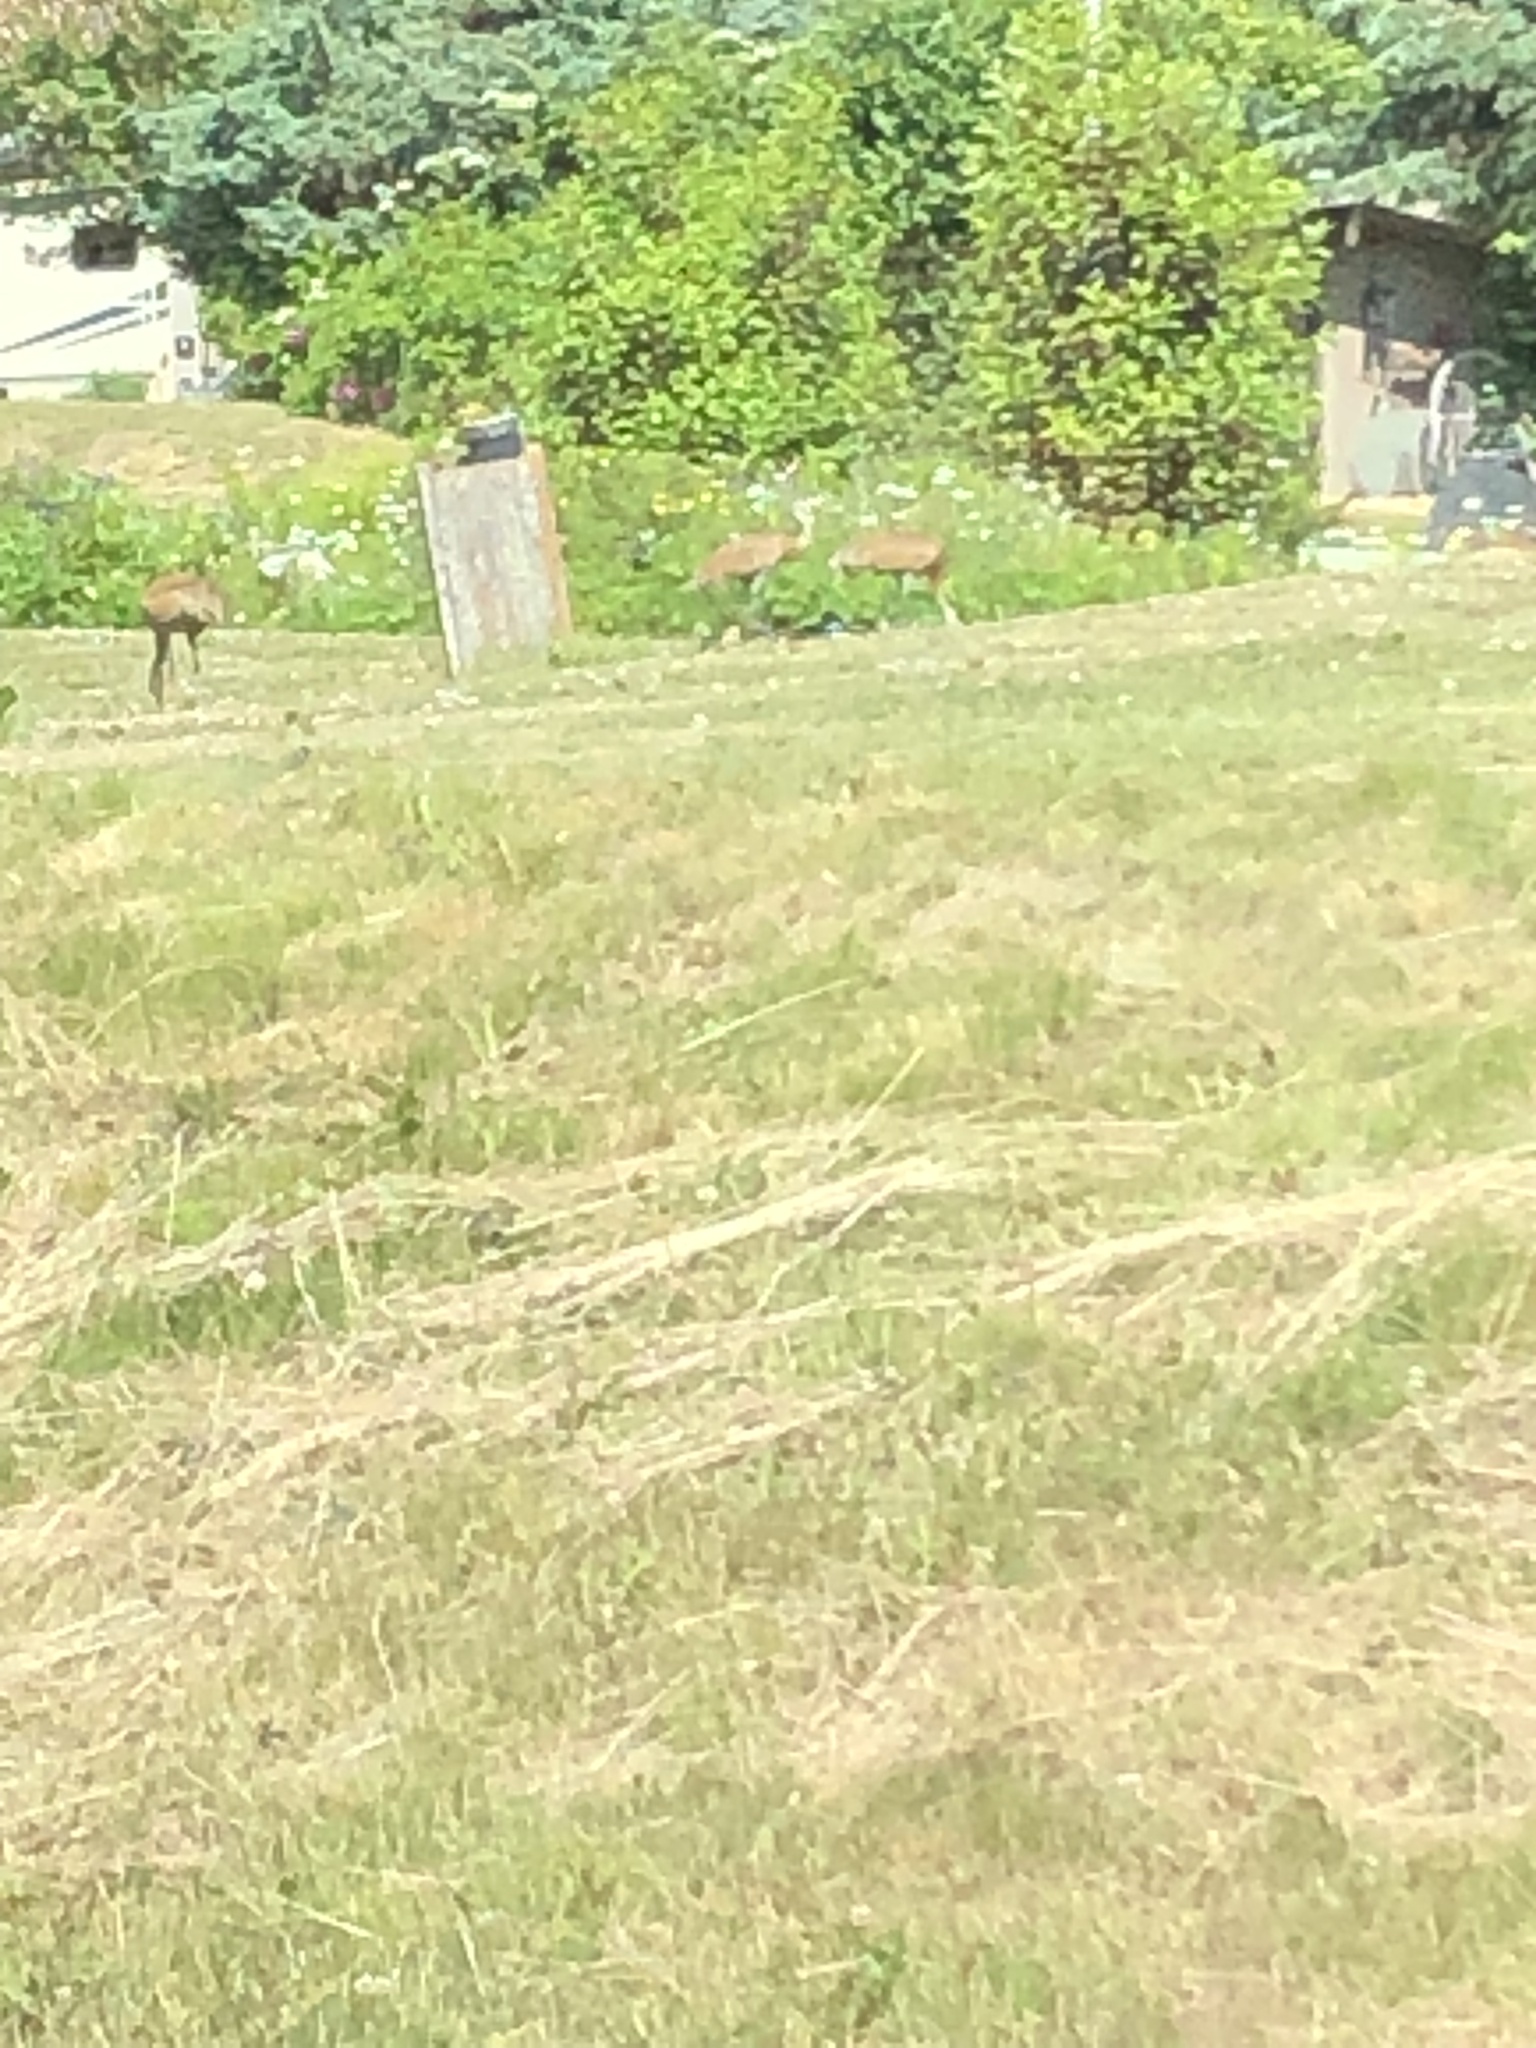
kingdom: Animalia
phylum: Chordata
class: Aves
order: Gruiformes
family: Gruidae
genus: Grus
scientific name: Grus canadensis
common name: Sandhill crane
